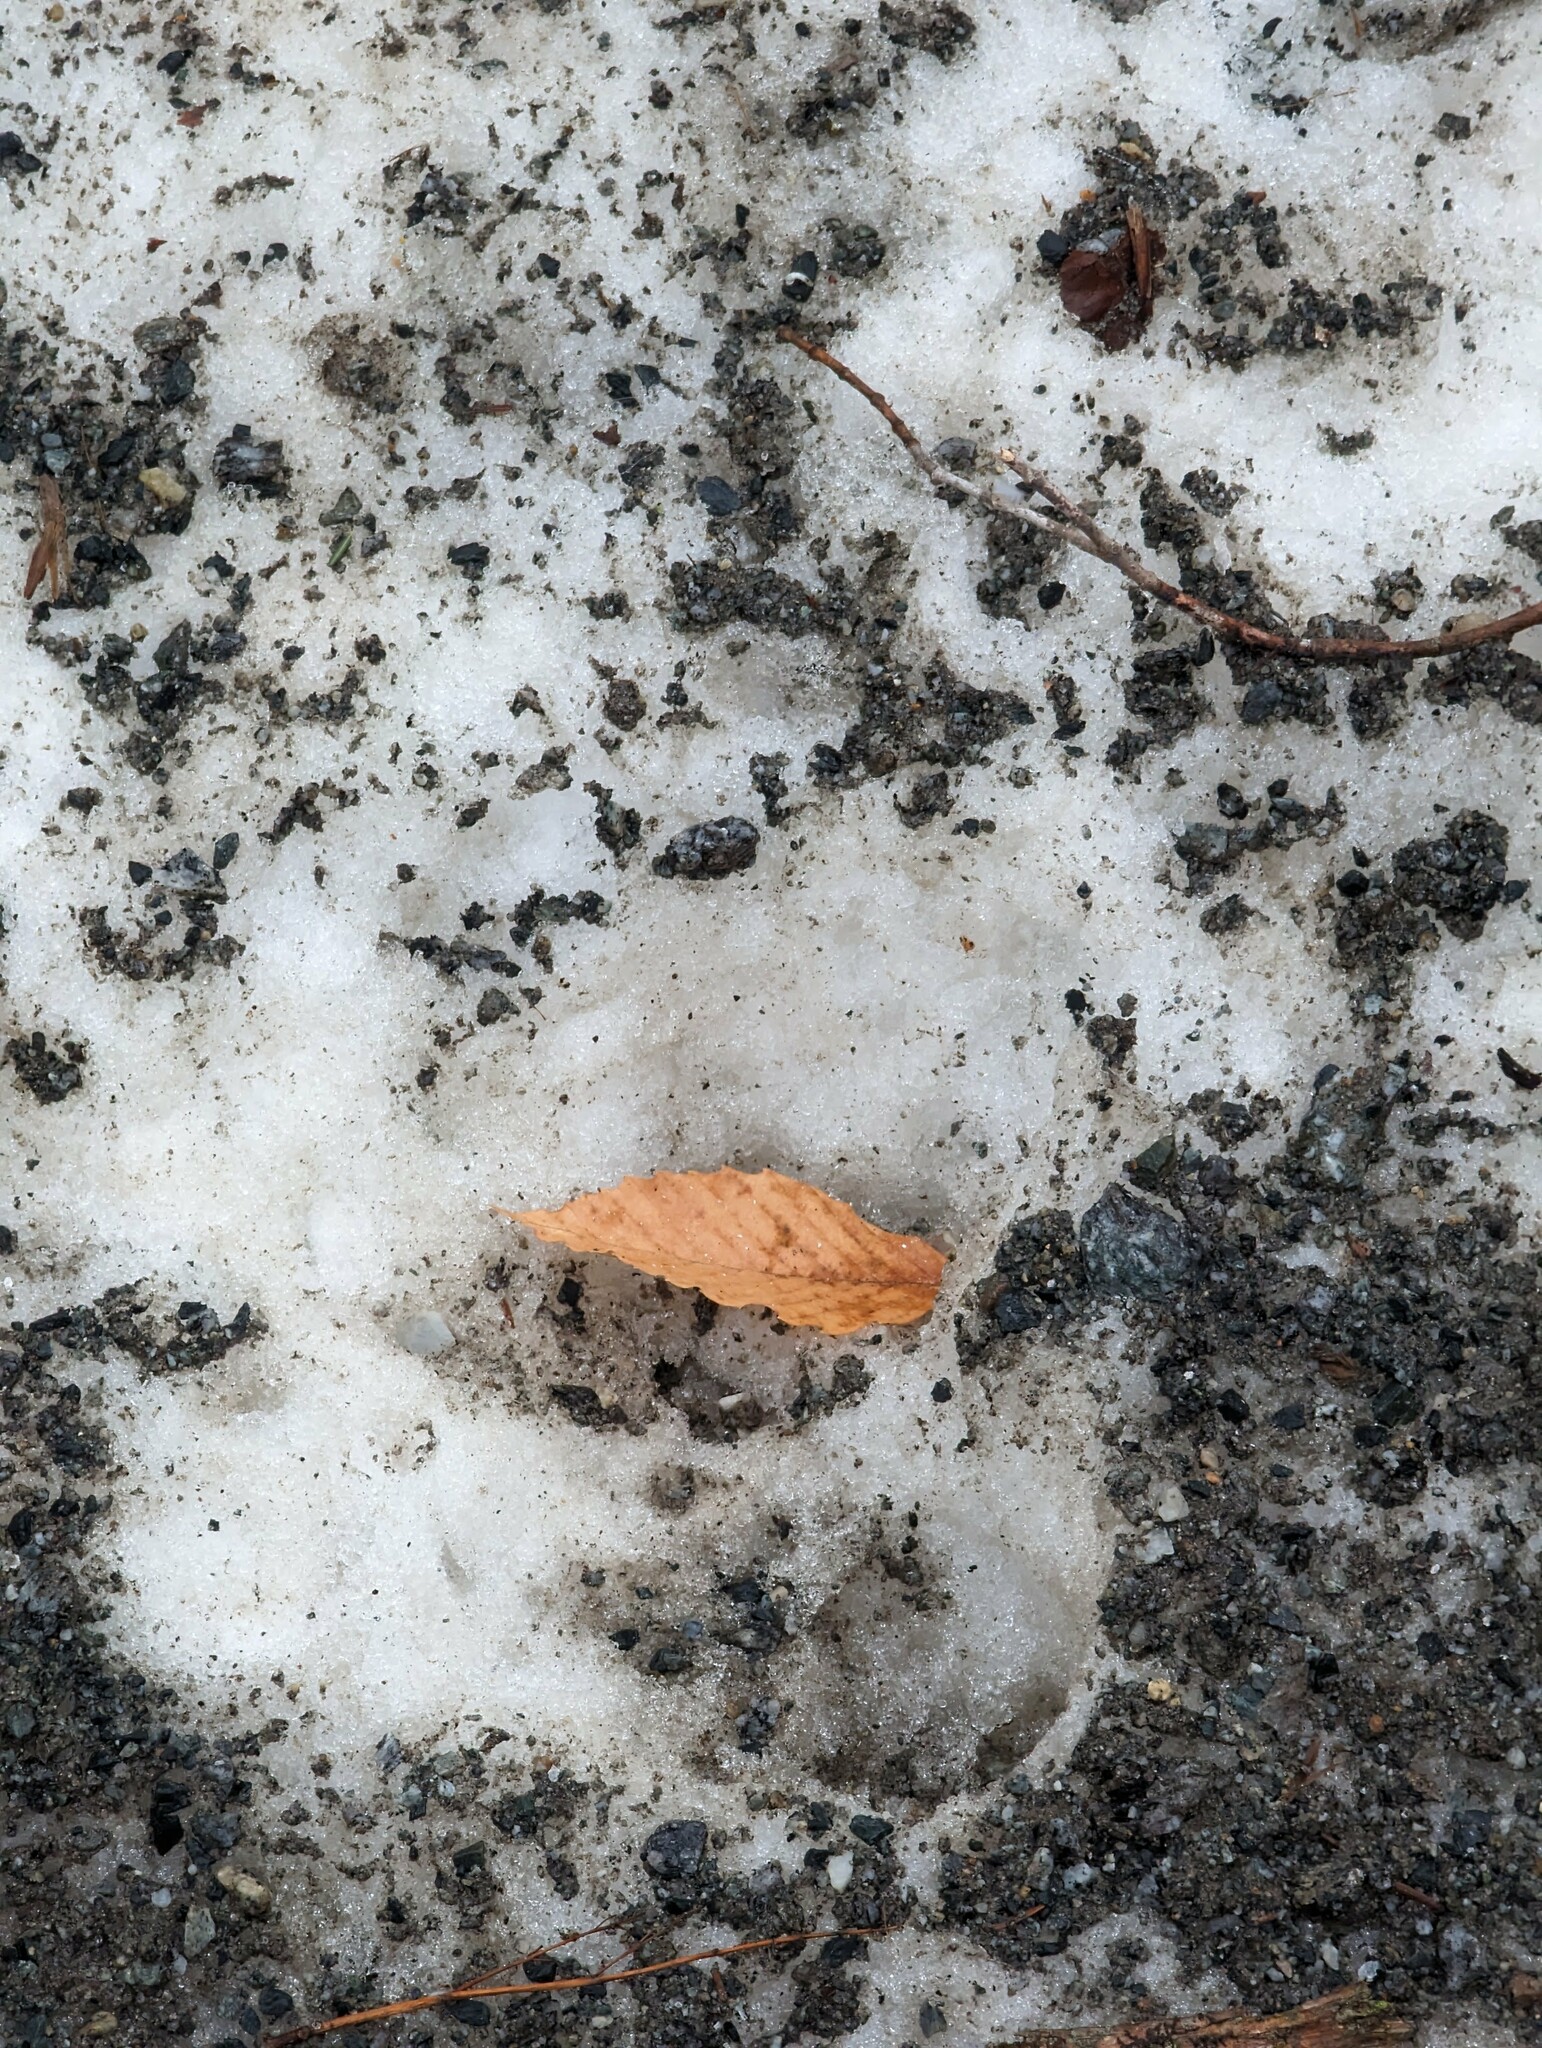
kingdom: Plantae
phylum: Tracheophyta
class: Magnoliopsida
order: Fagales
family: Fagaceae
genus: Fagus
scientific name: Fagus grandifolia
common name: American beech
